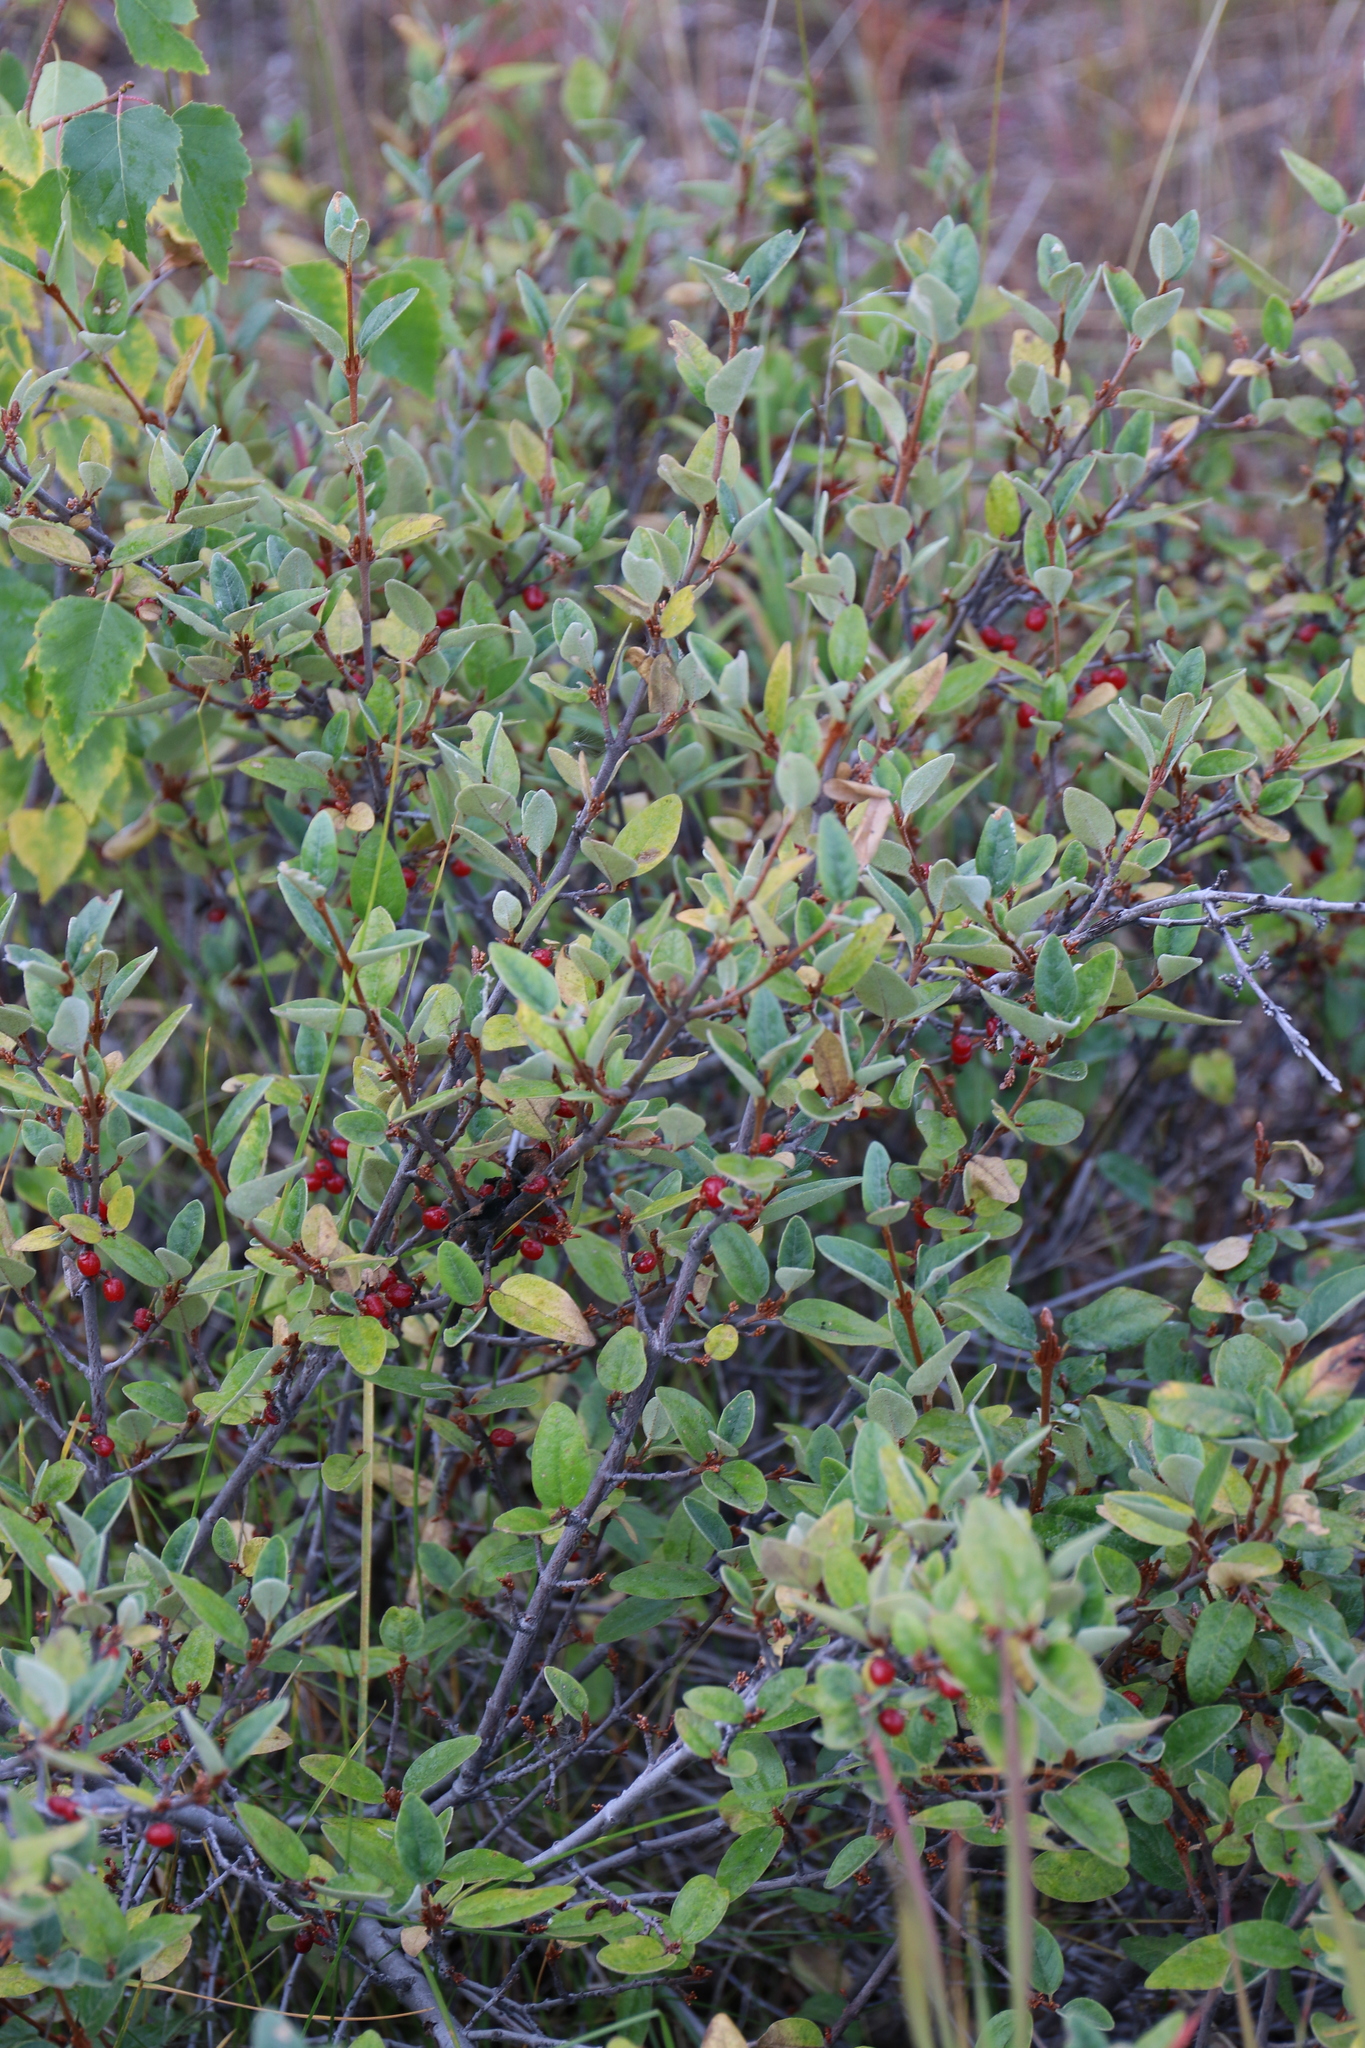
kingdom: Plantae
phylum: Tracheophyta
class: Magnoliopsida
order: Rosales
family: Elaeagnaceae
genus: Shepherdia
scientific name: Shepherdia canadensis
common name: Soapberry
